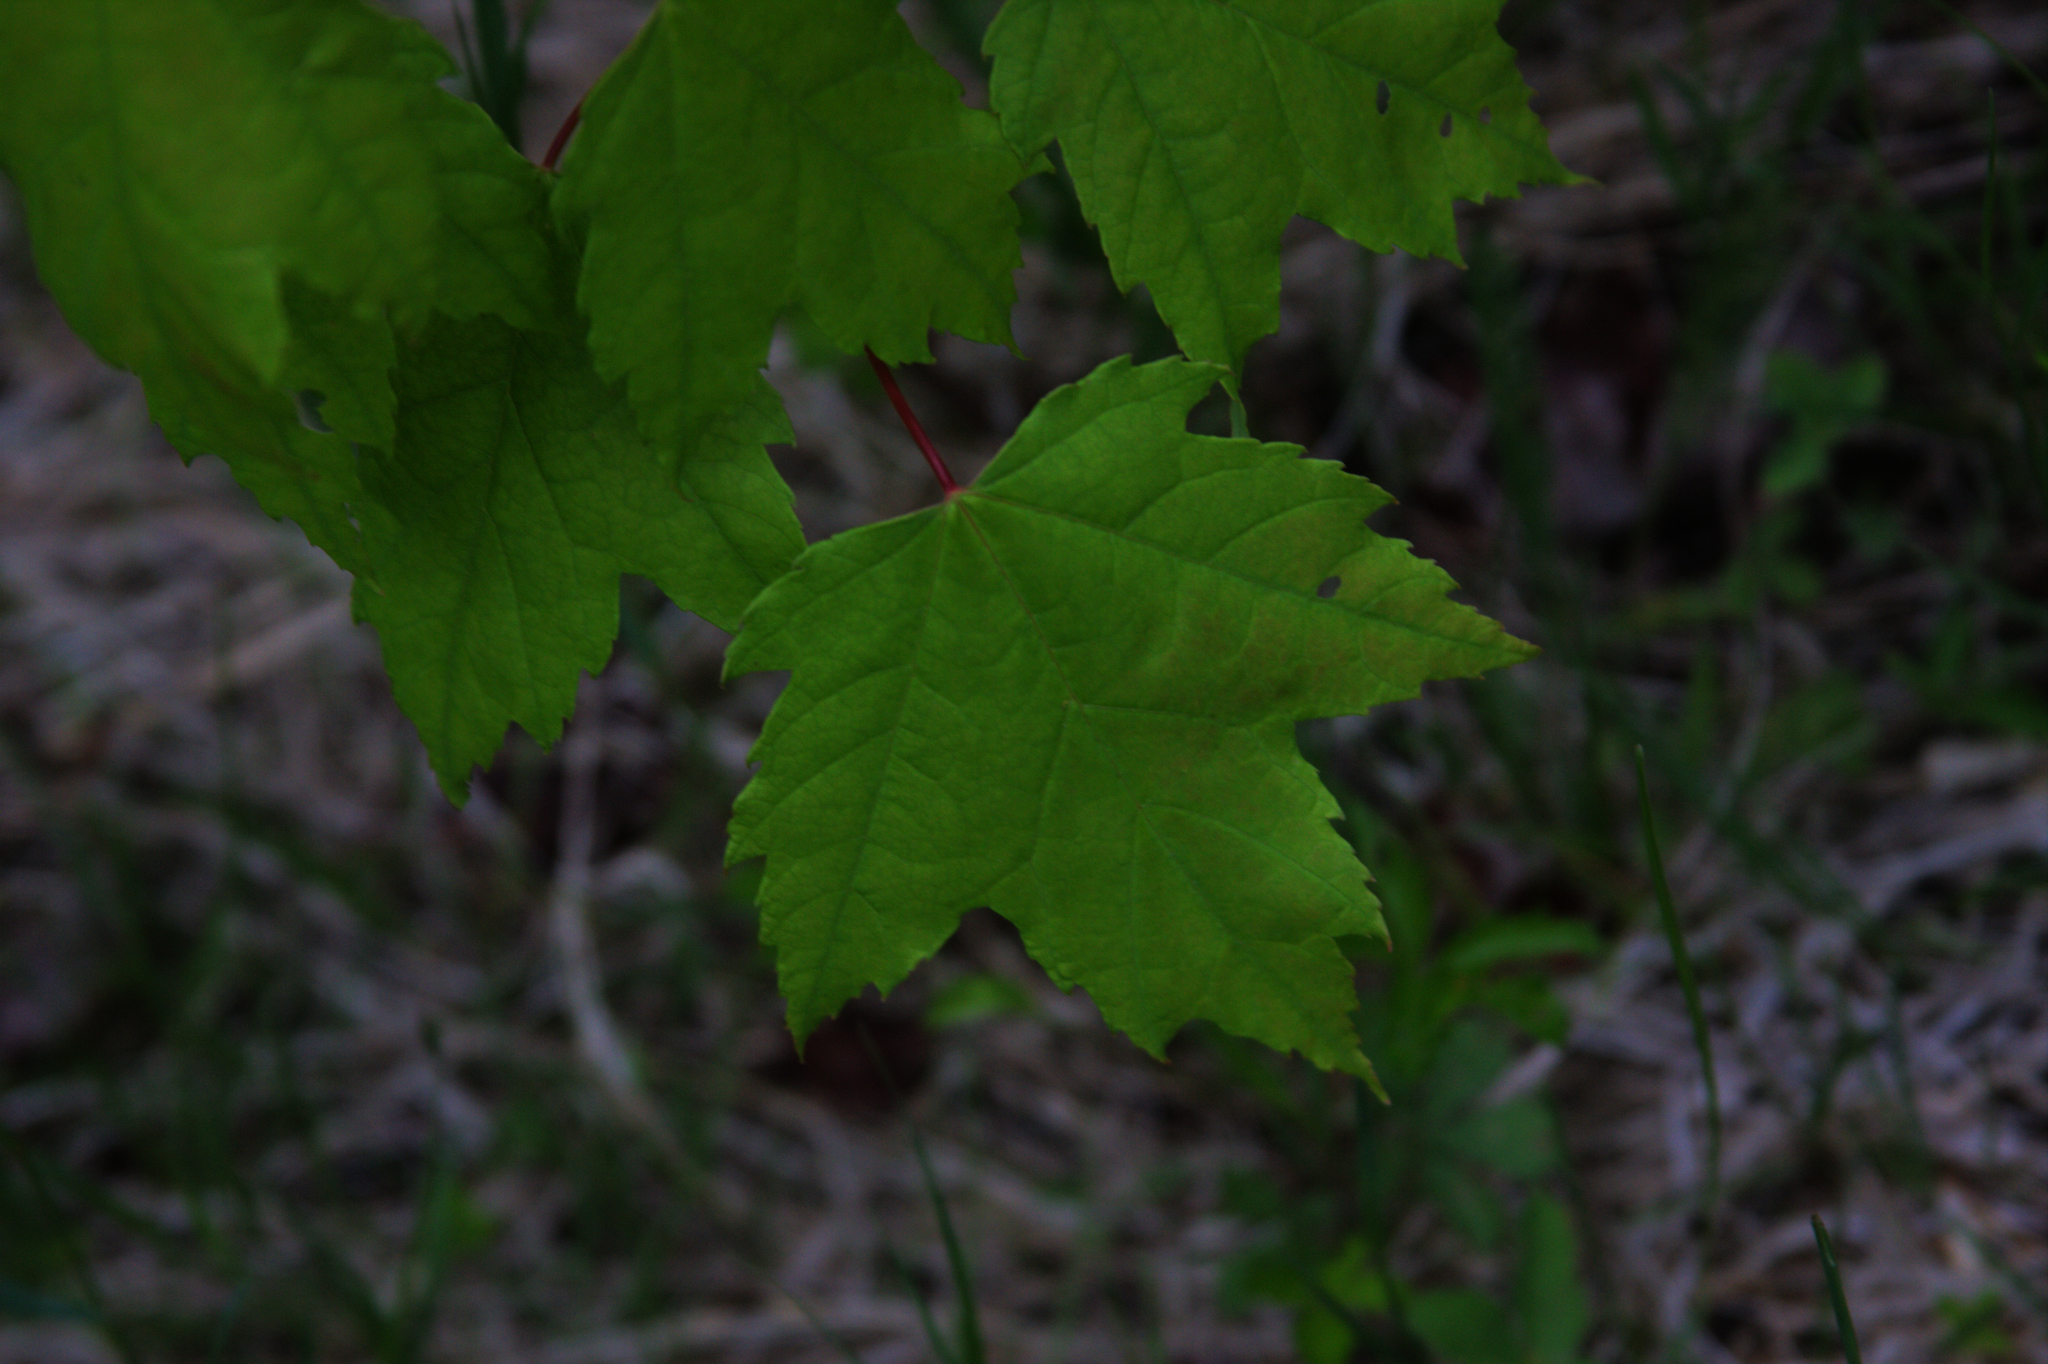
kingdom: Plantae
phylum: Tracheophyta
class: Magnoliopsida
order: Sapindales
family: Sapindaceae
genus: Acer
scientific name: Acer rubrum
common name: Red maple
